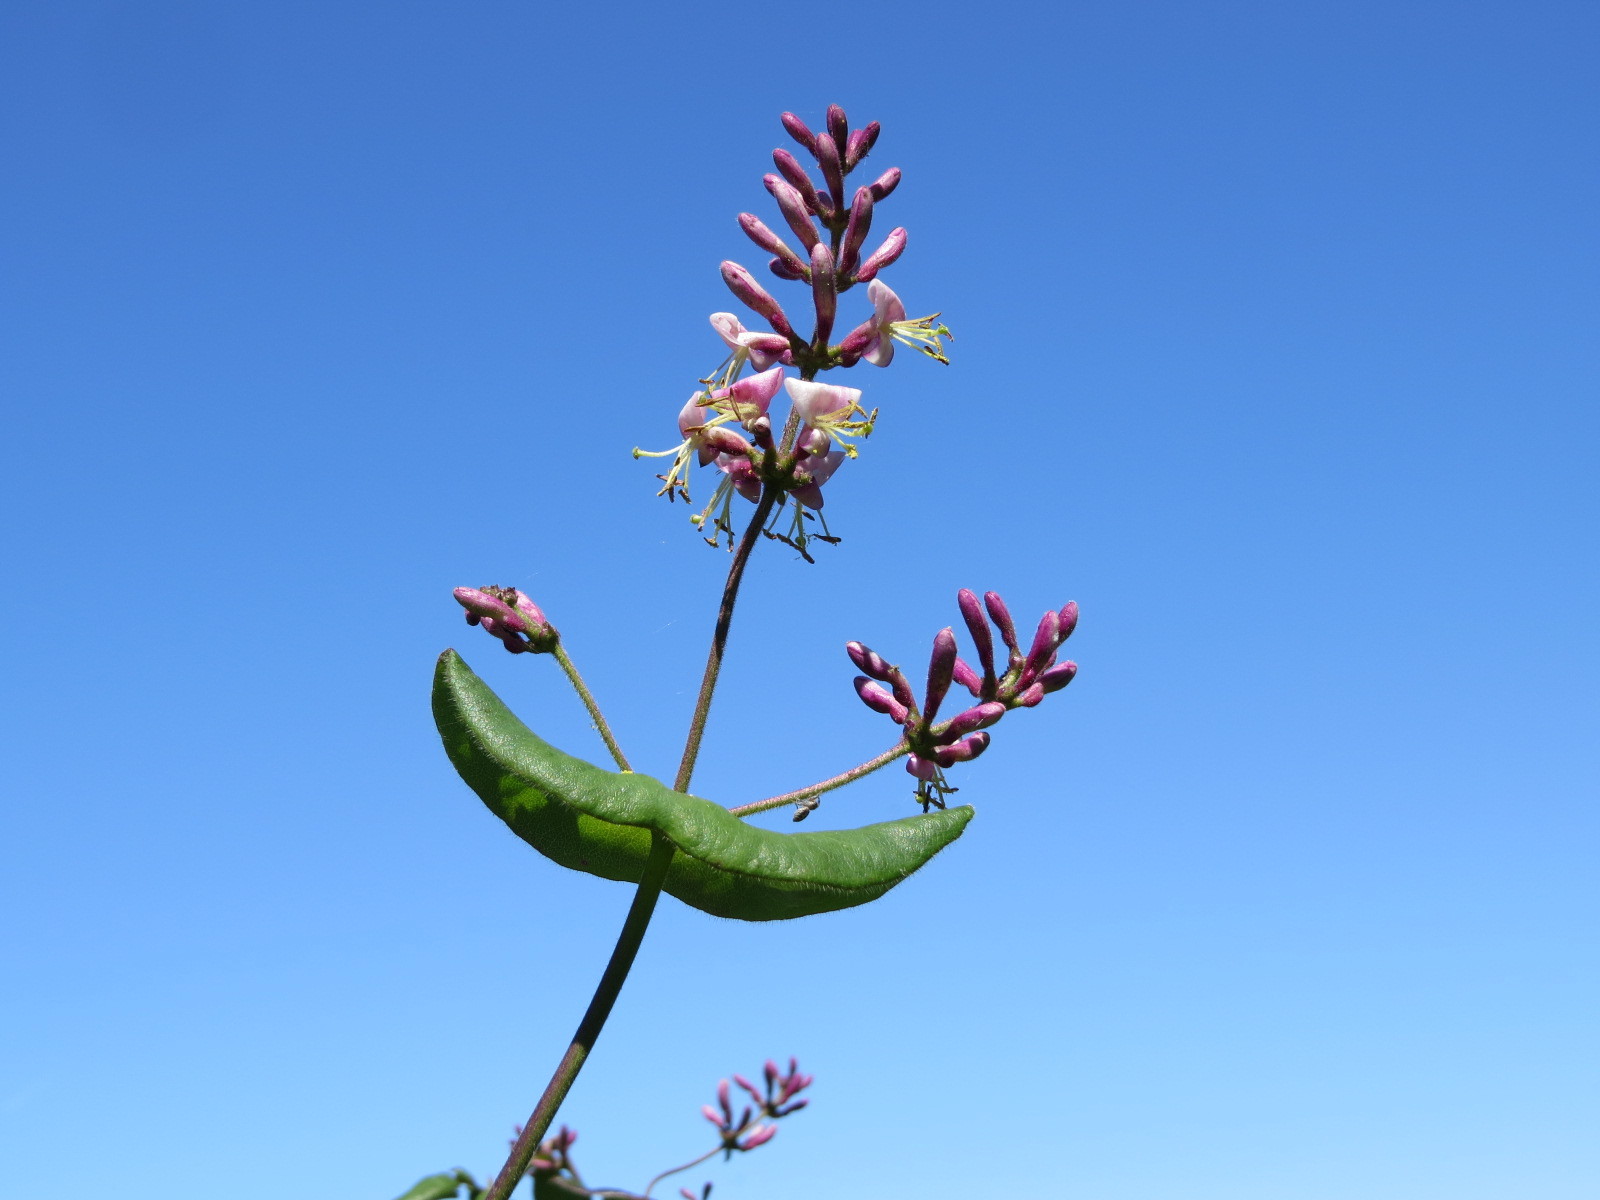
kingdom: Plantae
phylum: Tracheophyta
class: Magnoliopsida
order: Dipsacales
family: Caprifoliaceae
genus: Lonicera
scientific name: Lonicera hispidula
